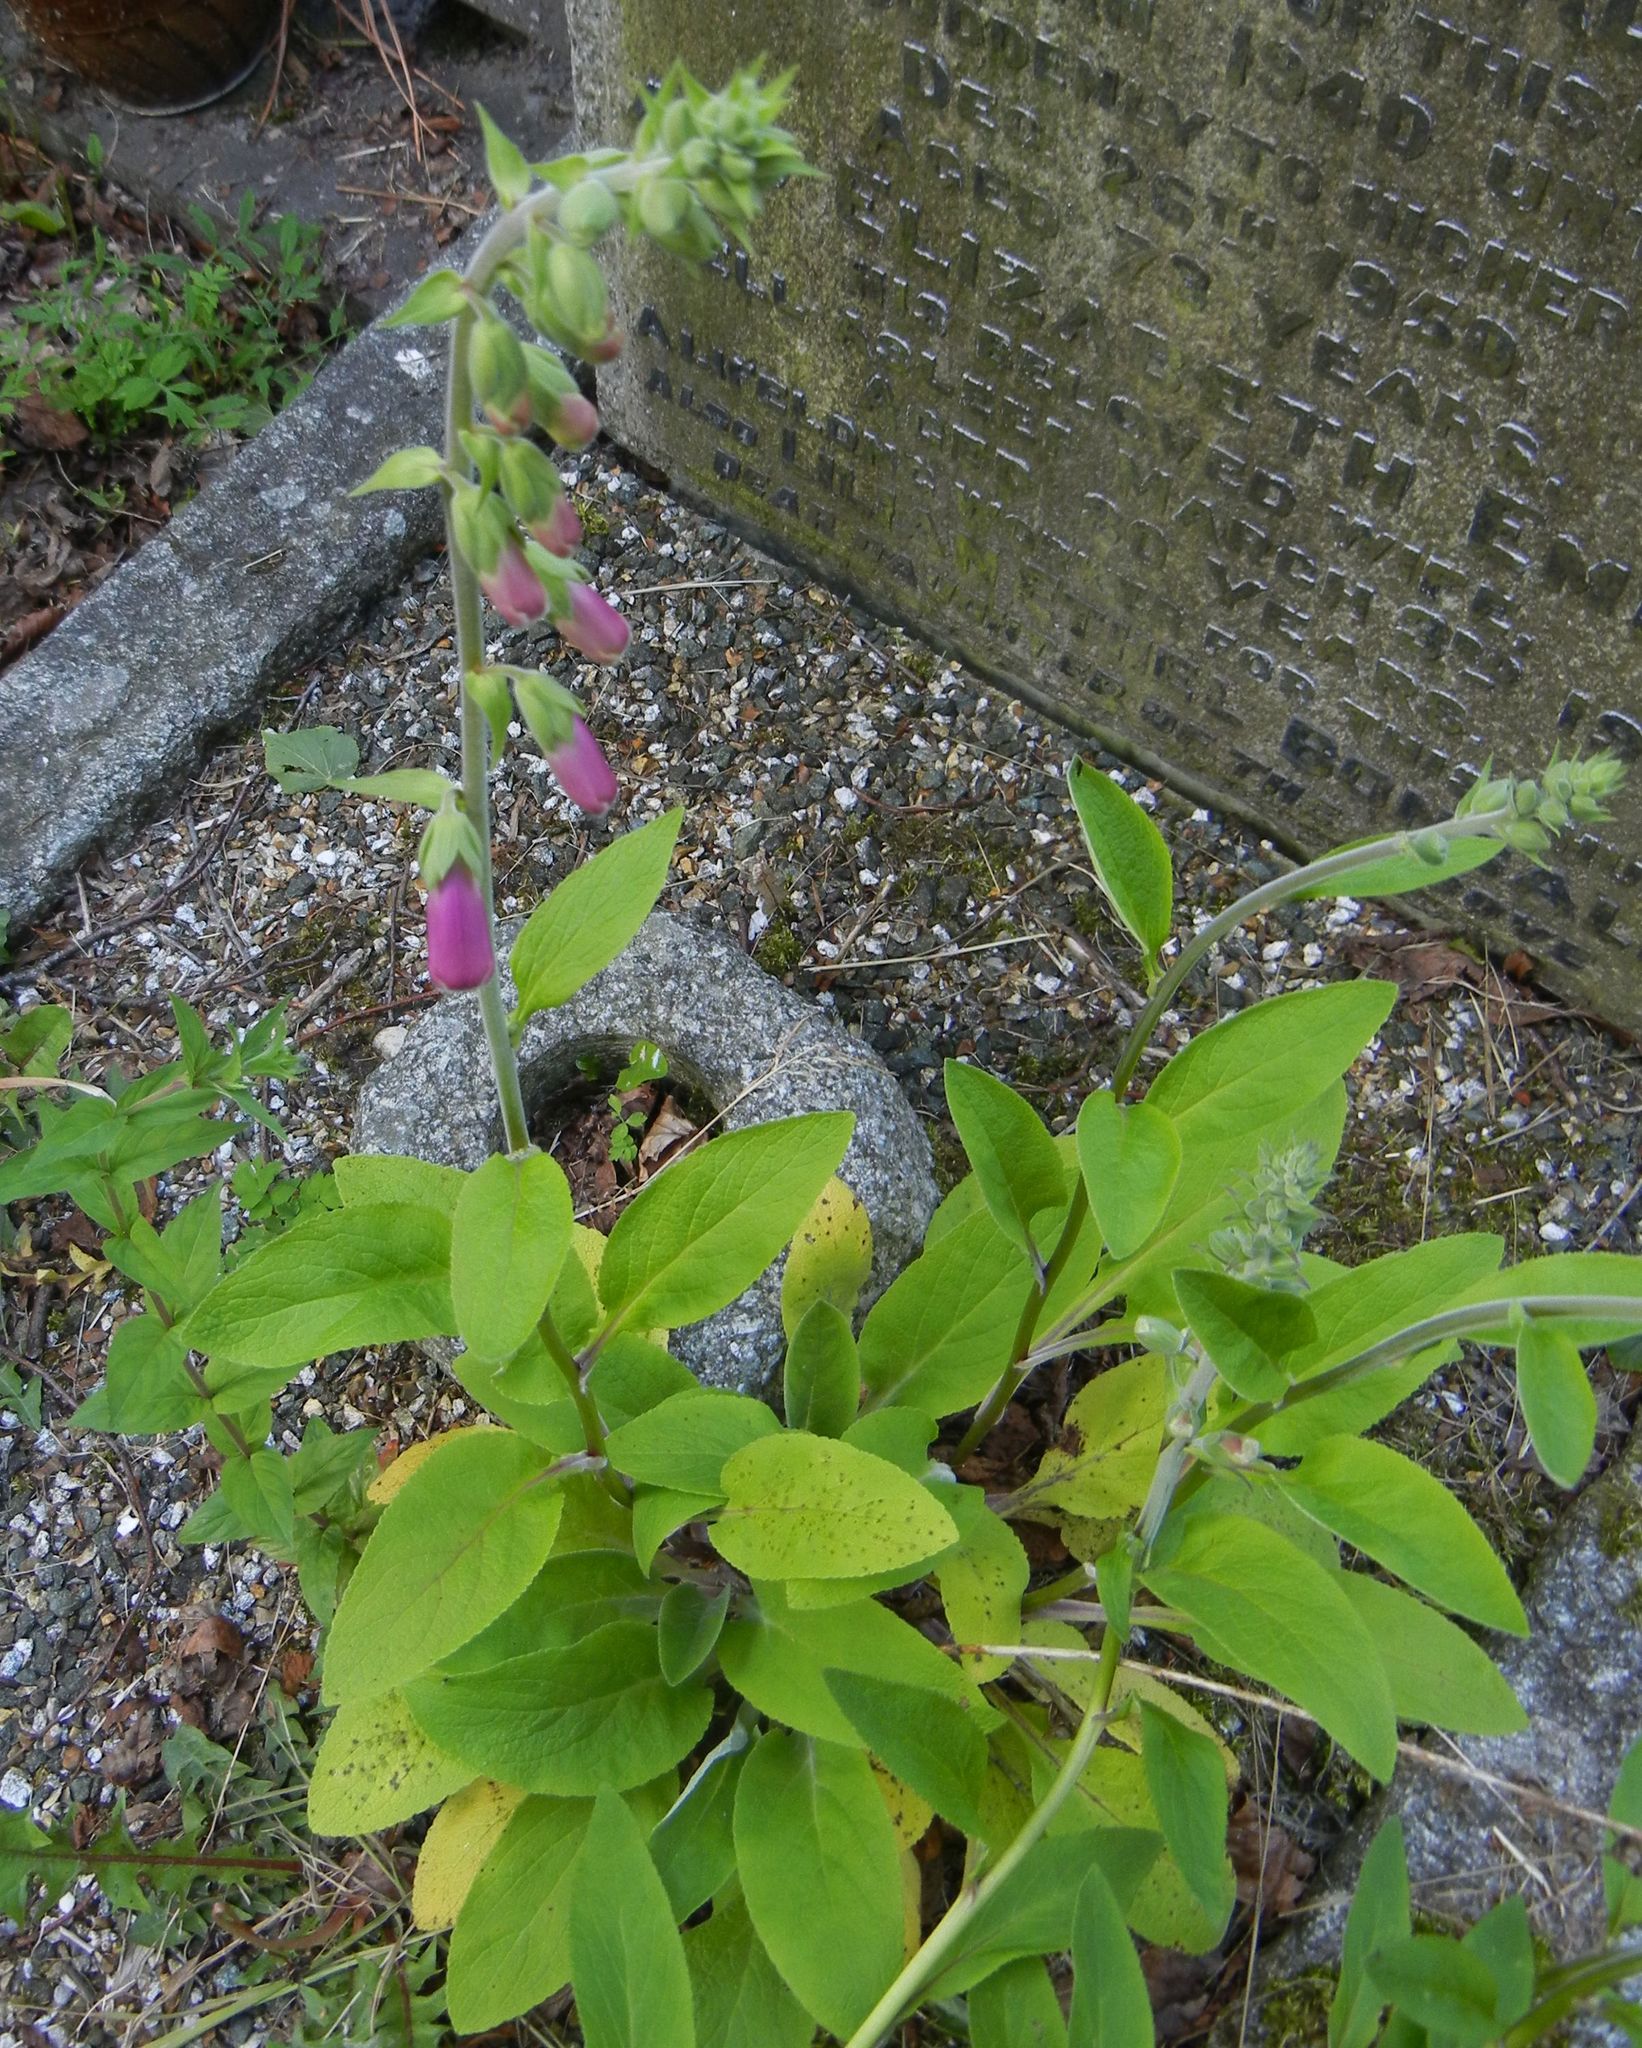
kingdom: Plantae
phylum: Tracheophyta
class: Magnoliopsida
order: Lamiales
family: Plantaginaceae
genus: Digitalis
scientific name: Digitalis purpurea
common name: Foxglove
